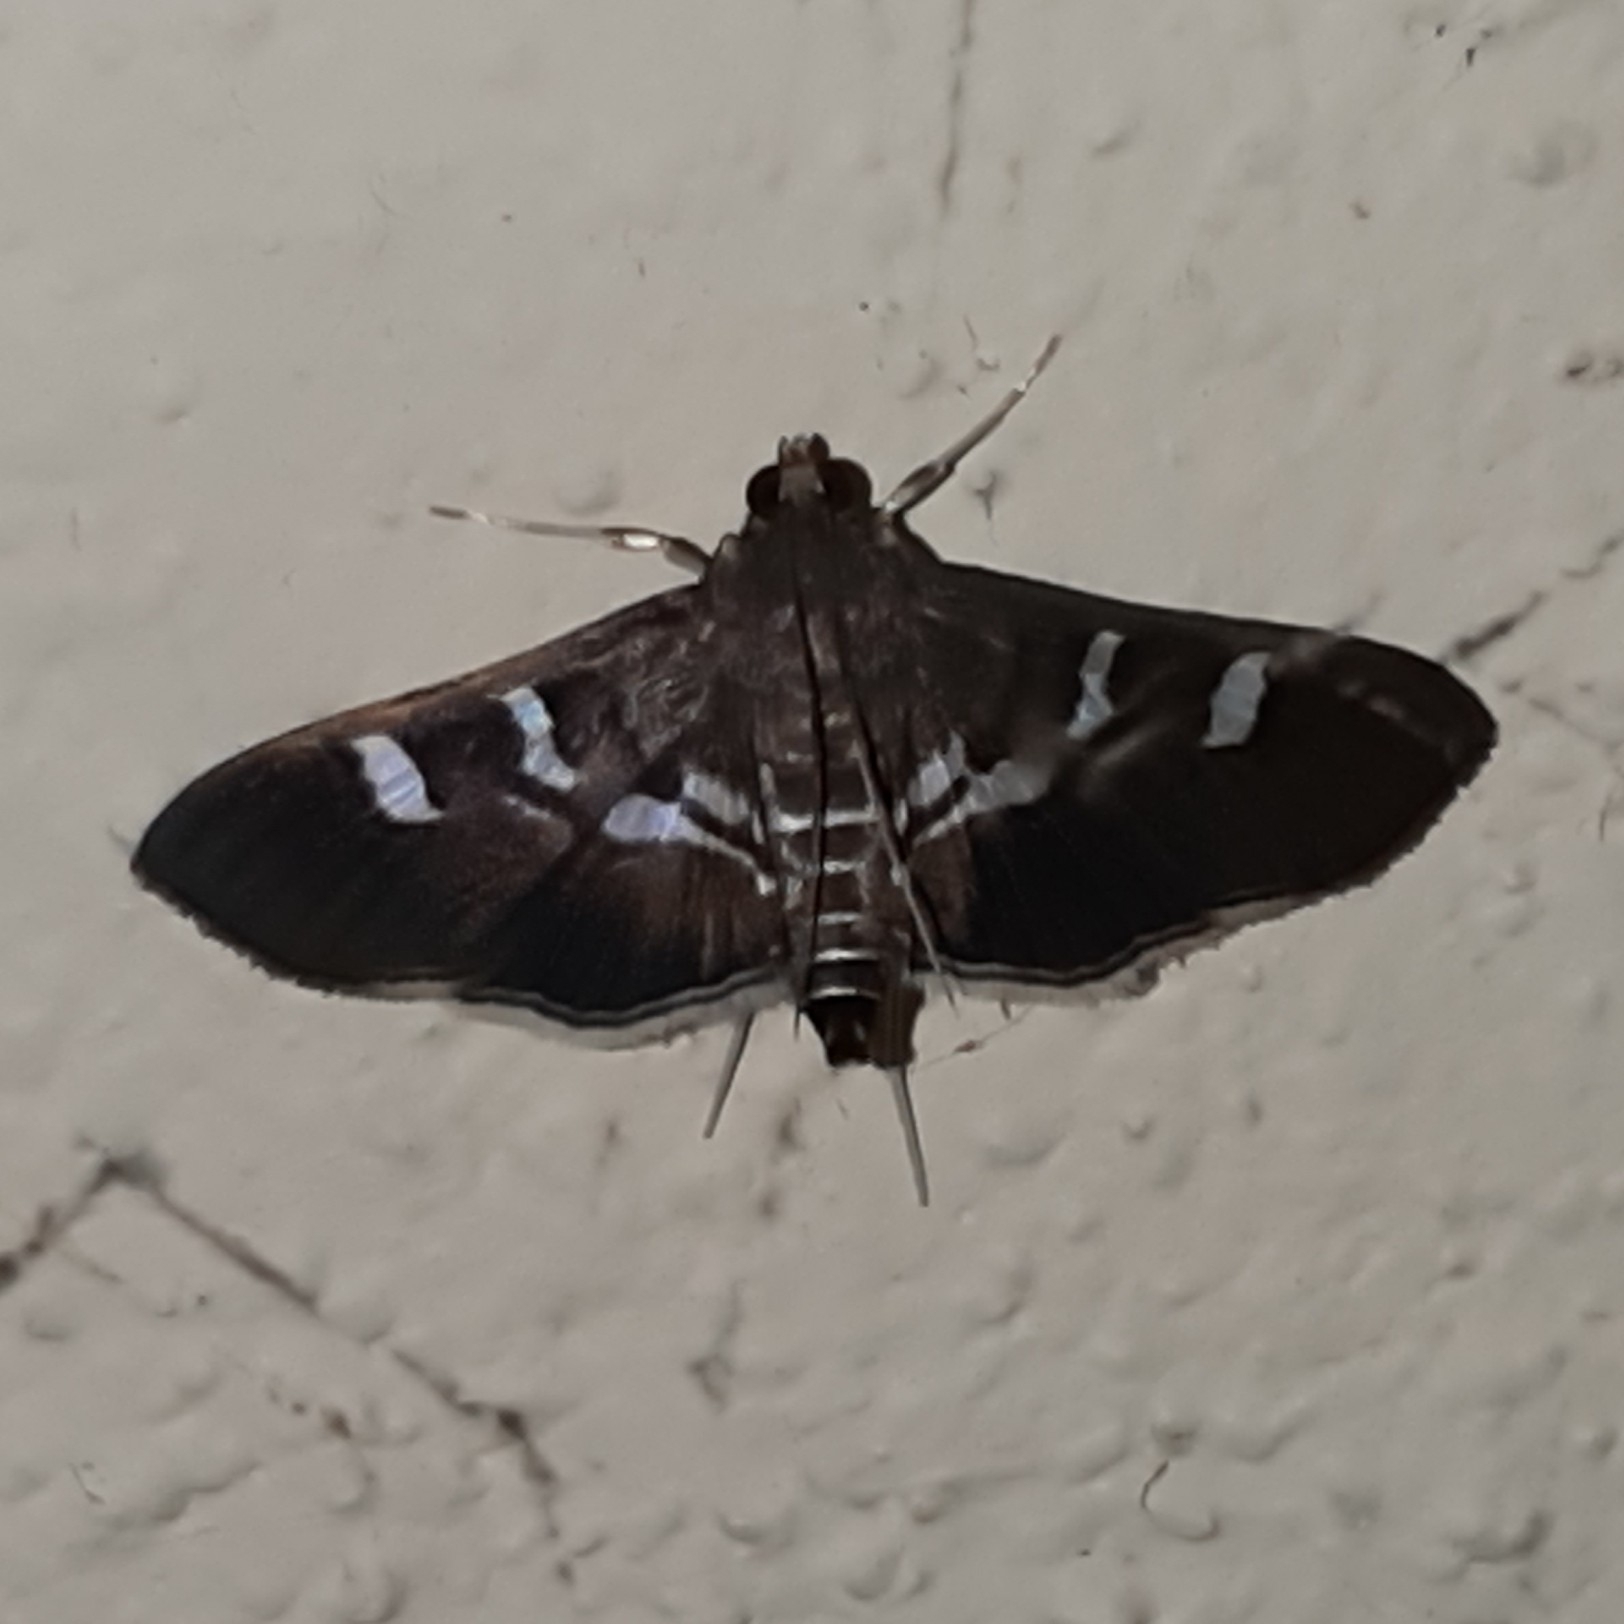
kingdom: Animalia
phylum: Arthropoda
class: Insecta
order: Lepidoptera
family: Crambidae
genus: Desmia
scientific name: Desmia deploralis
